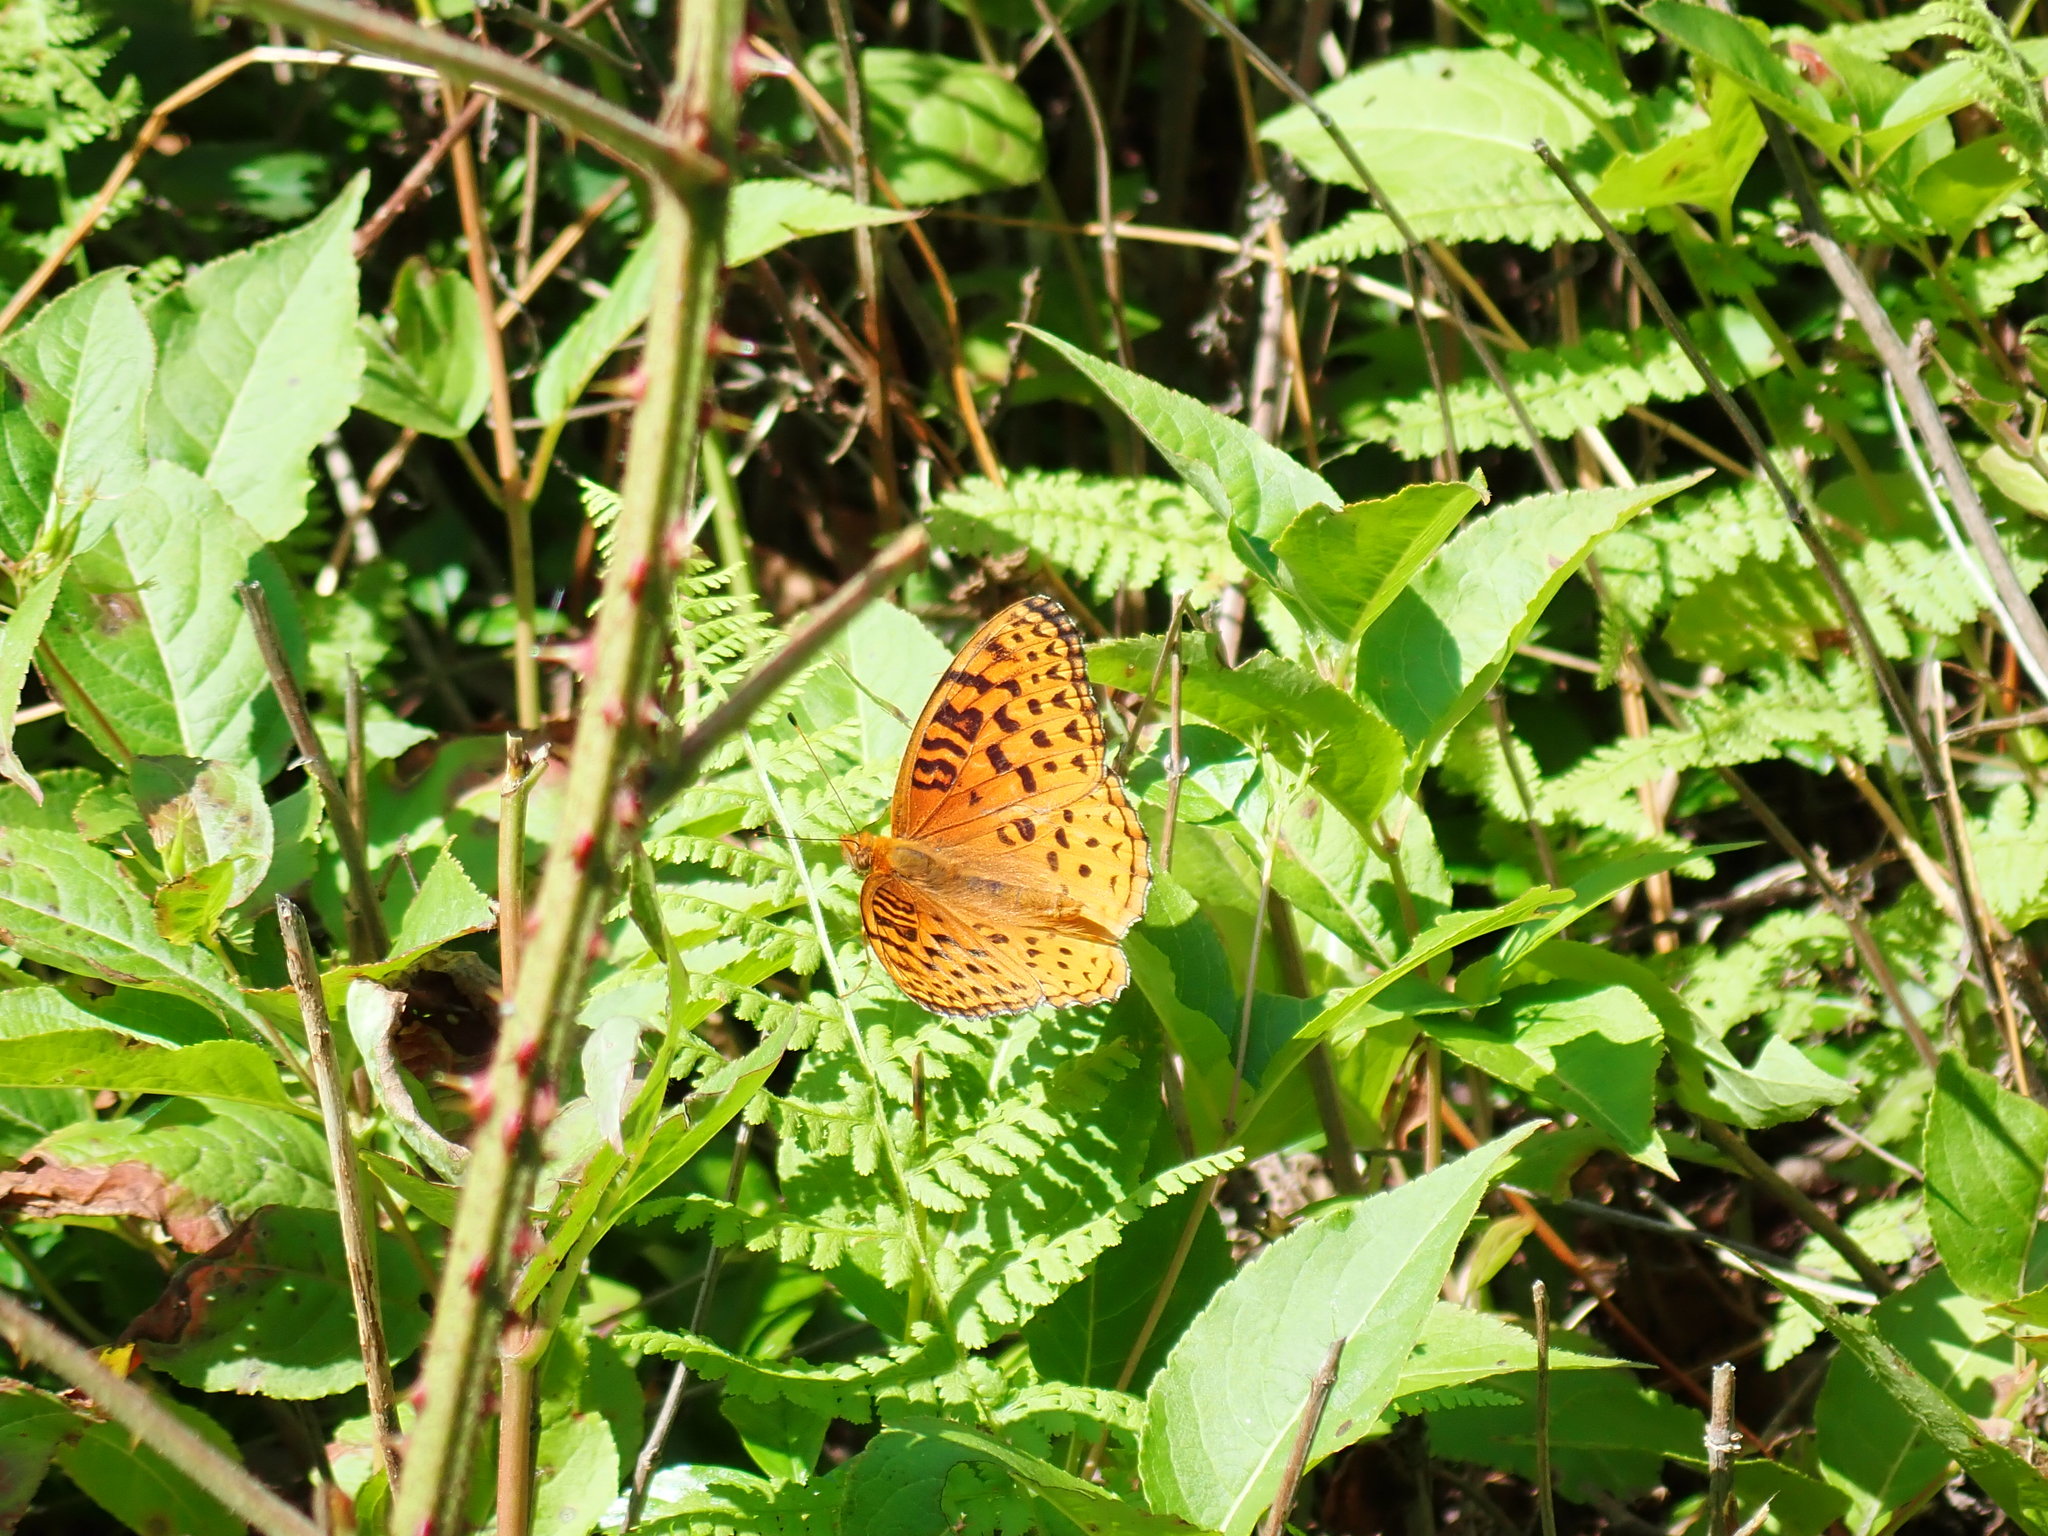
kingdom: Animalia
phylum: Arthropoda
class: Insecta
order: Lepidoptera
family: Nymphalidae
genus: Speyeria
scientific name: Speyeria aphrodite
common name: Aphrodite friitllary
